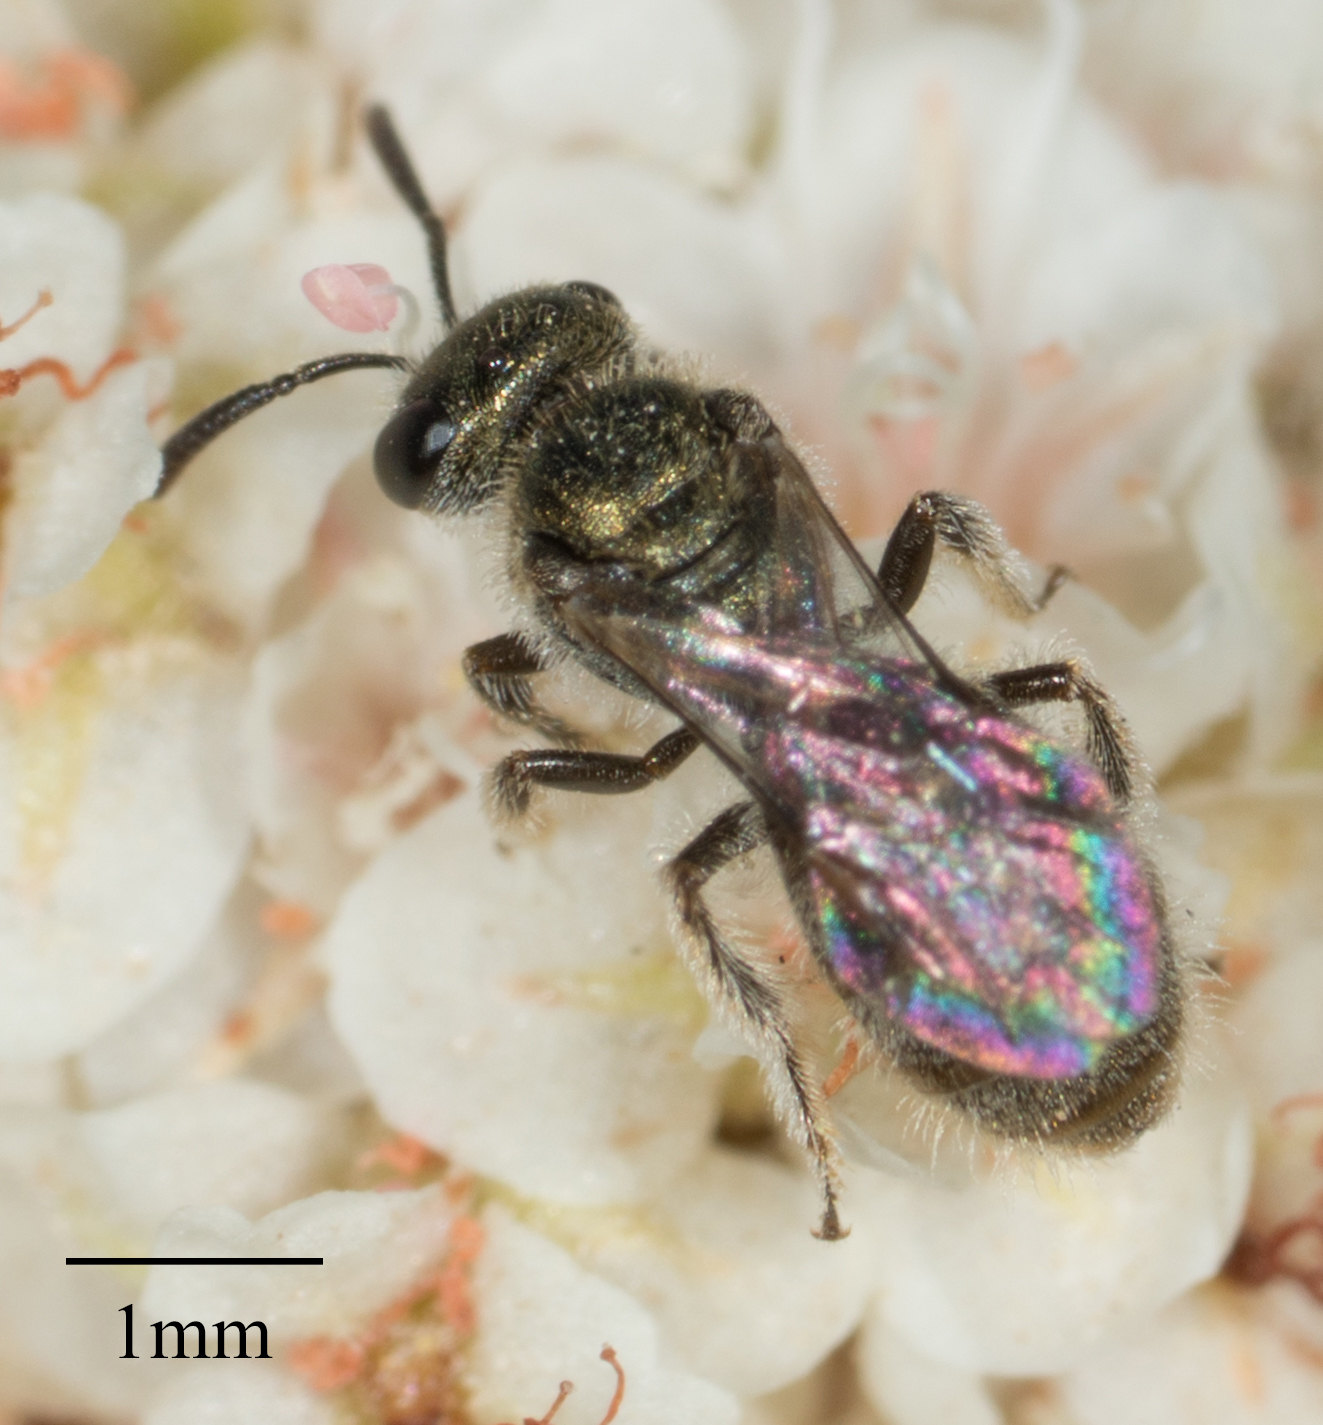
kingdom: Animalia
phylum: Arthropoda
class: Insecta
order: Hymenoptera
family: Halictidae
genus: Lasioglossum
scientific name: Lasioglossum
